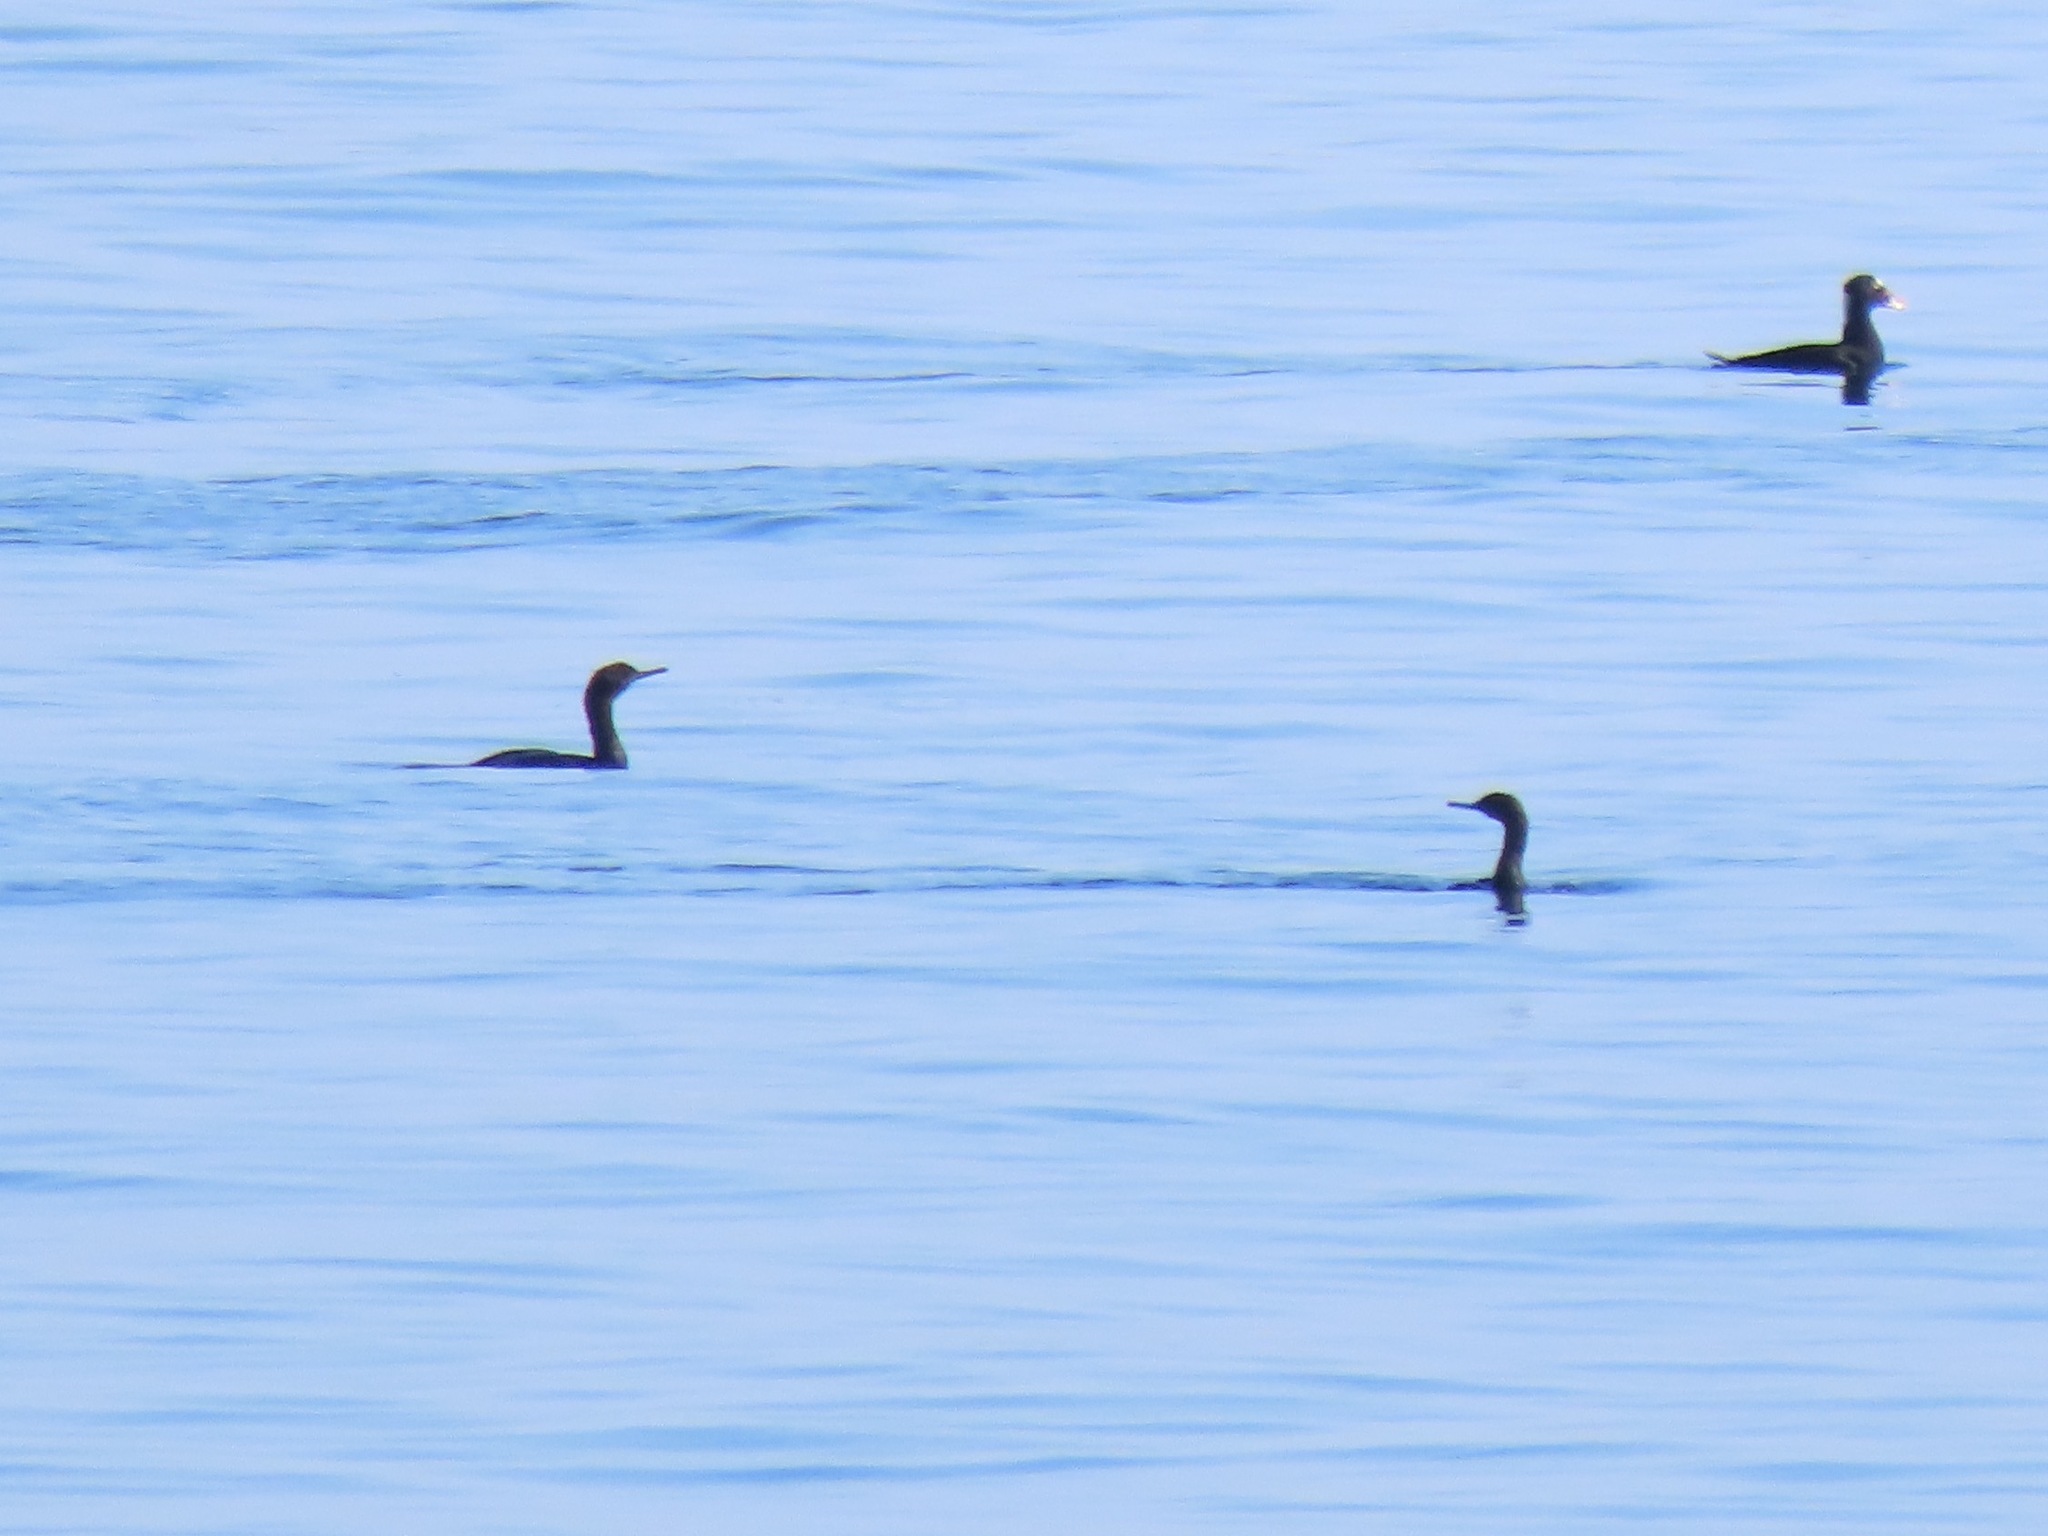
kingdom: Animalia
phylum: Chordata
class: Aves
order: Suliformes
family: Phalacrocoracidae
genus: Phalacrocorax
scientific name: Phalacrocorax pelagicus
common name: Pelagic cormorant
